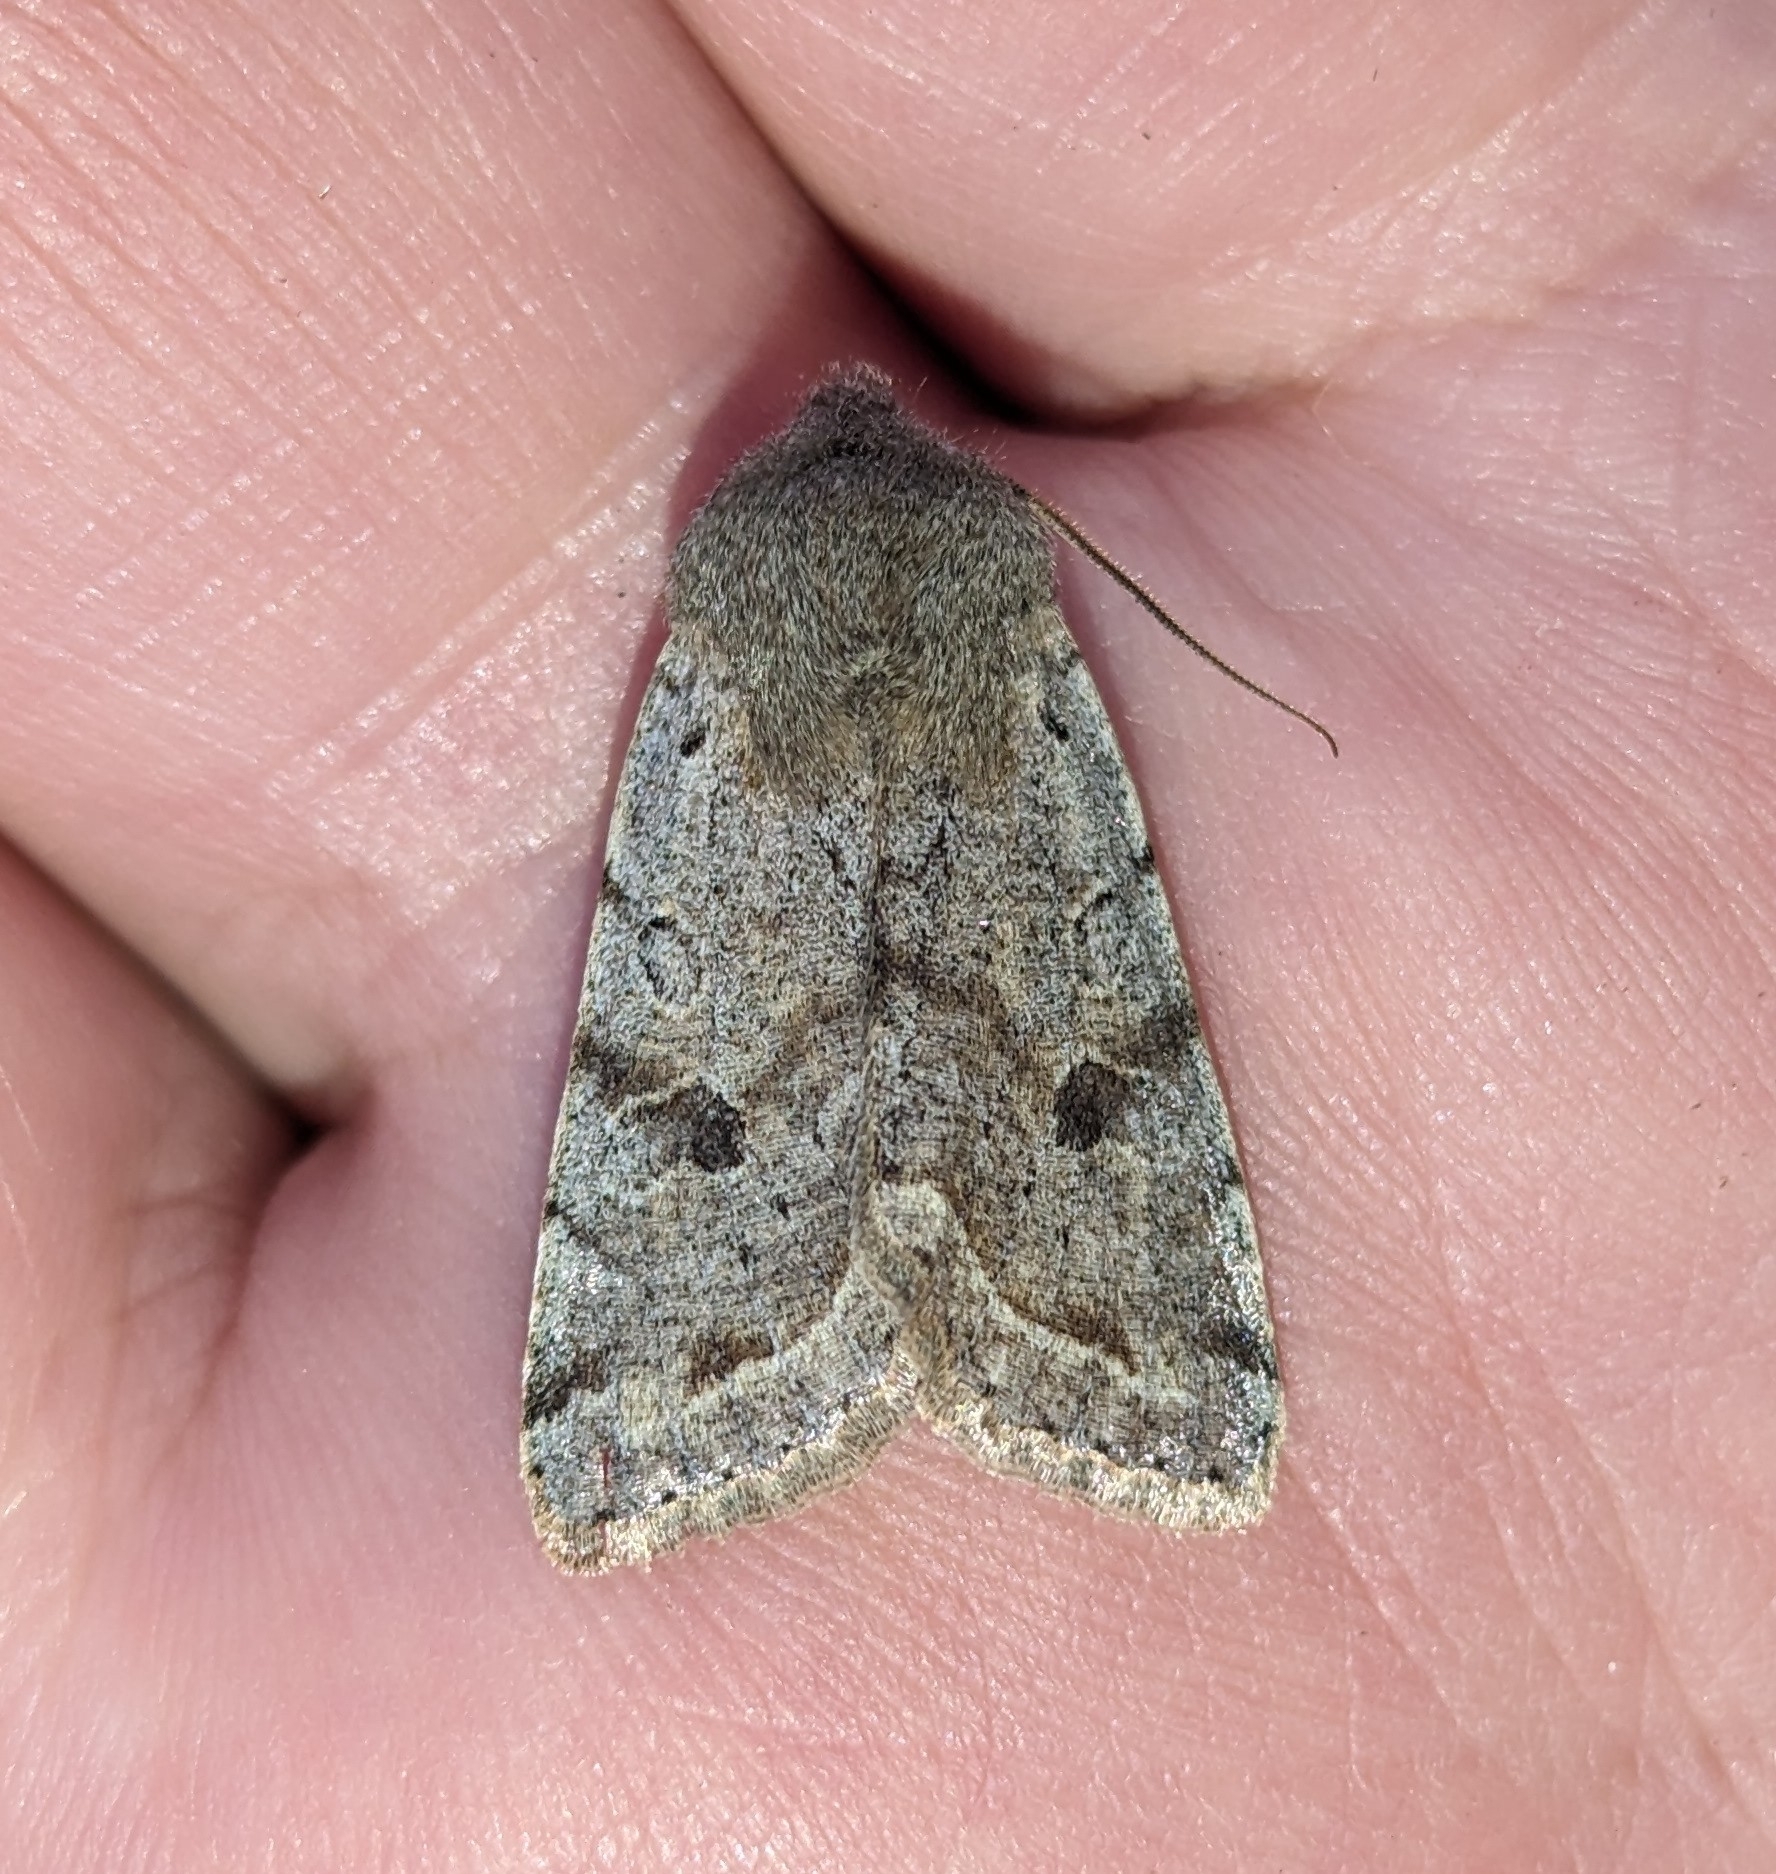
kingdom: Animalia
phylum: Arthropoda
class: Insecta
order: Lepidoptera
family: Noctuidae
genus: Orthosia
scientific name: Orthosia hibisci
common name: Green fruitworm
